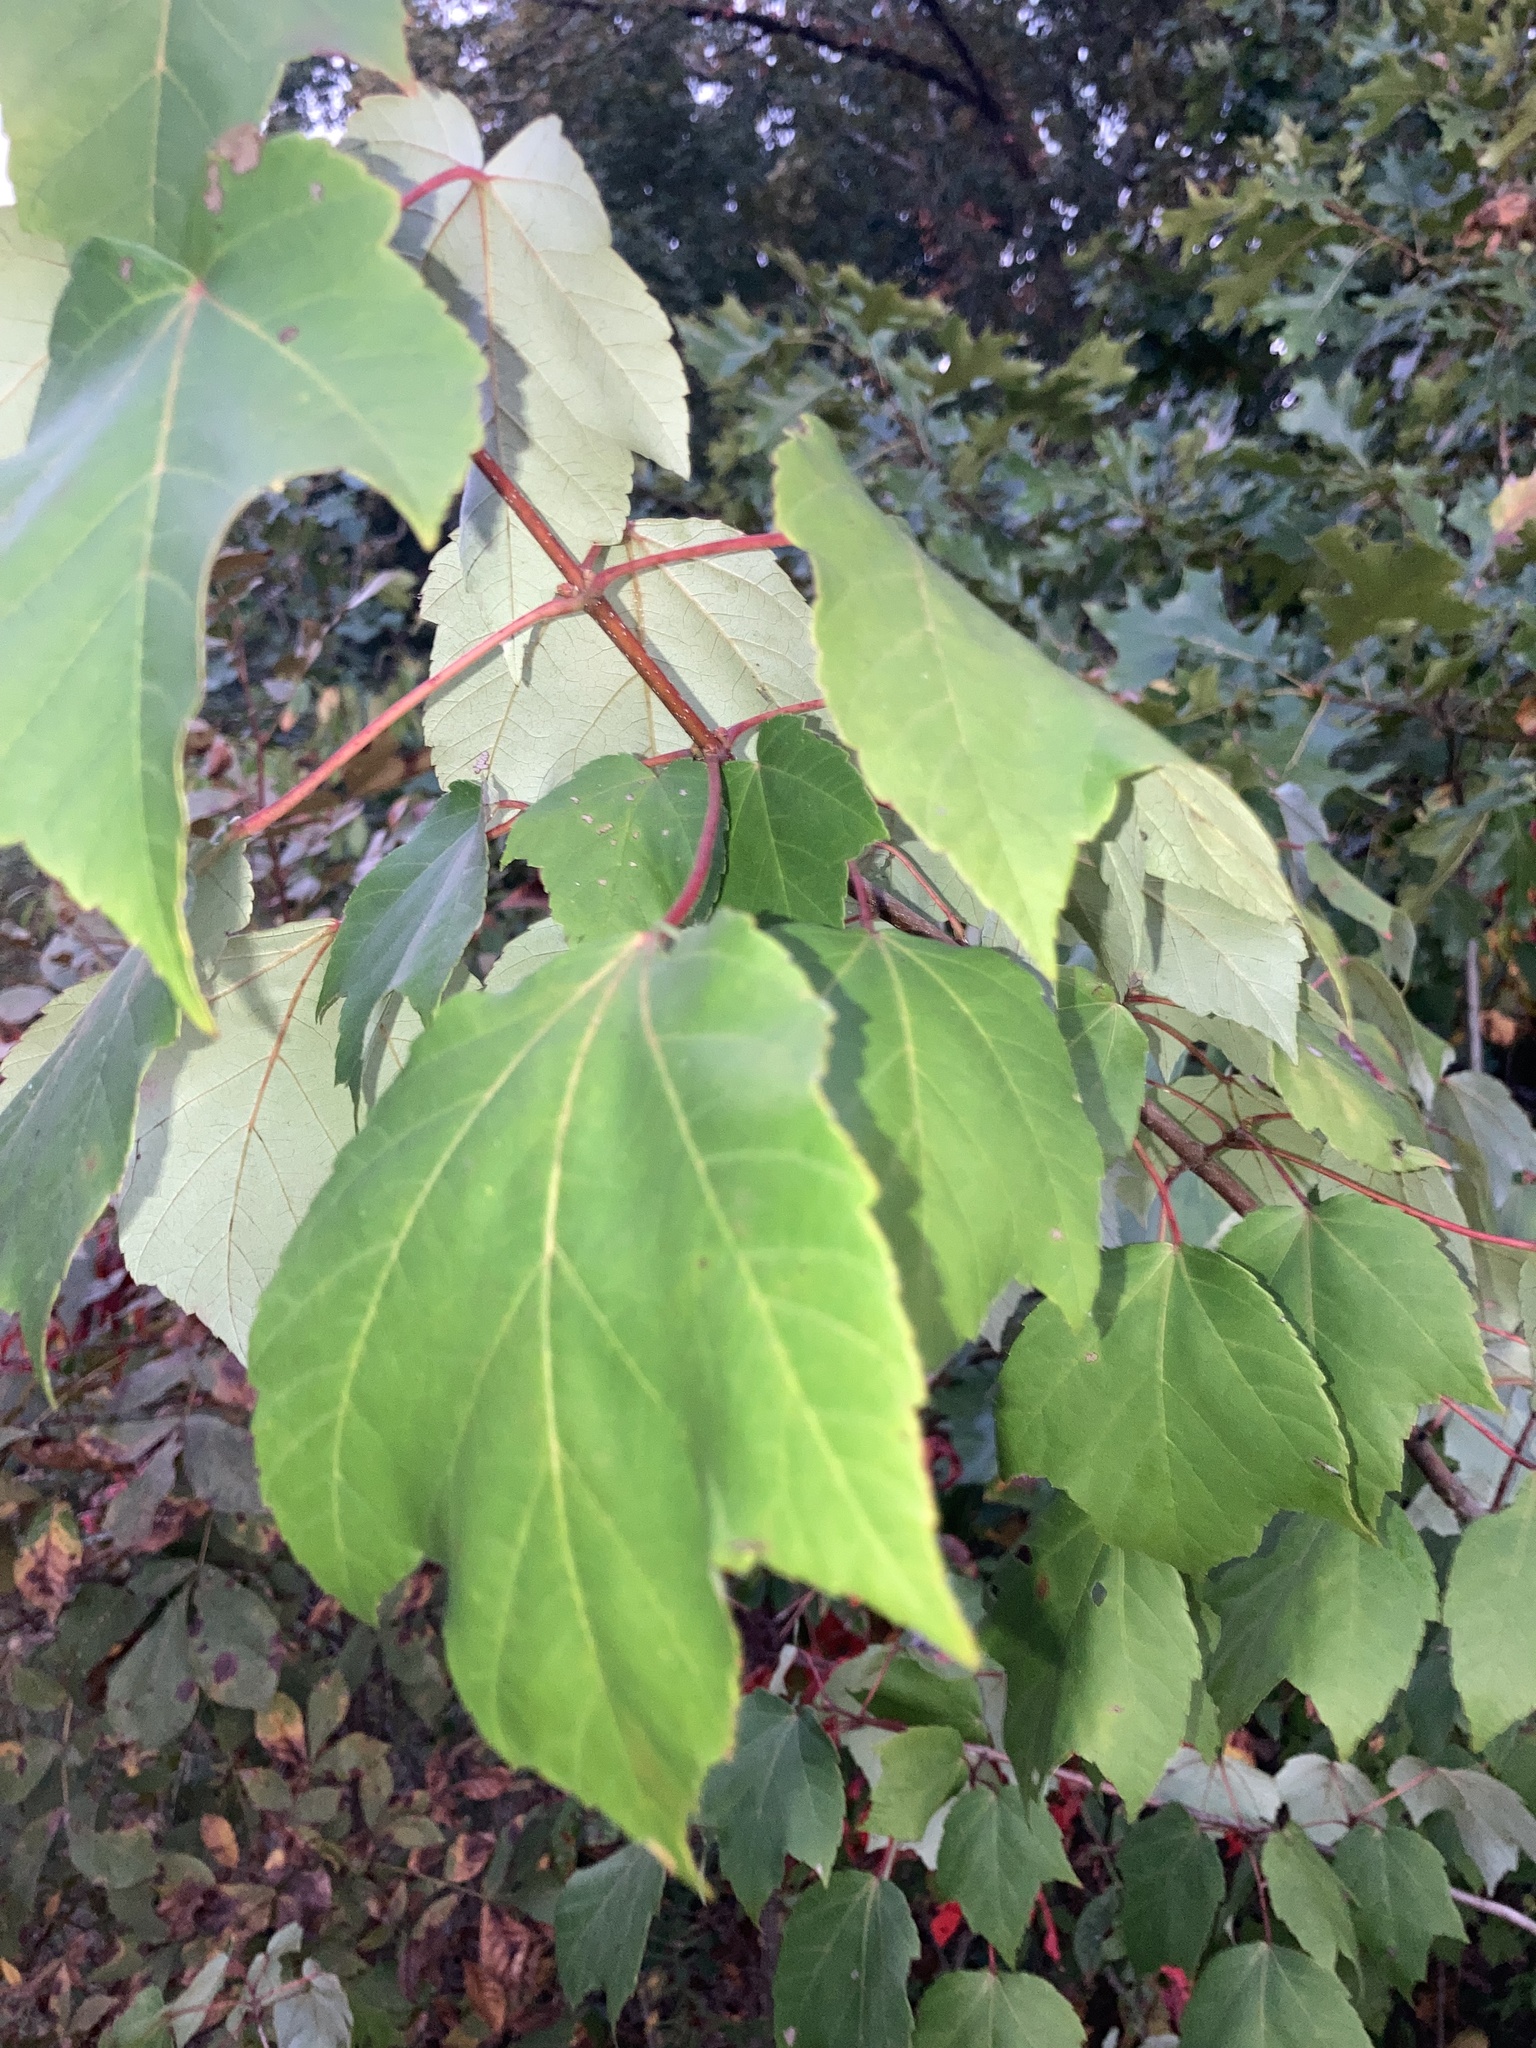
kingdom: Plantae
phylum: Tracheophyta
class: Magnoliopsida
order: Sapindales
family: Sapindaceae
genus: Acer
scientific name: Acer rubrum
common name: Red maple
